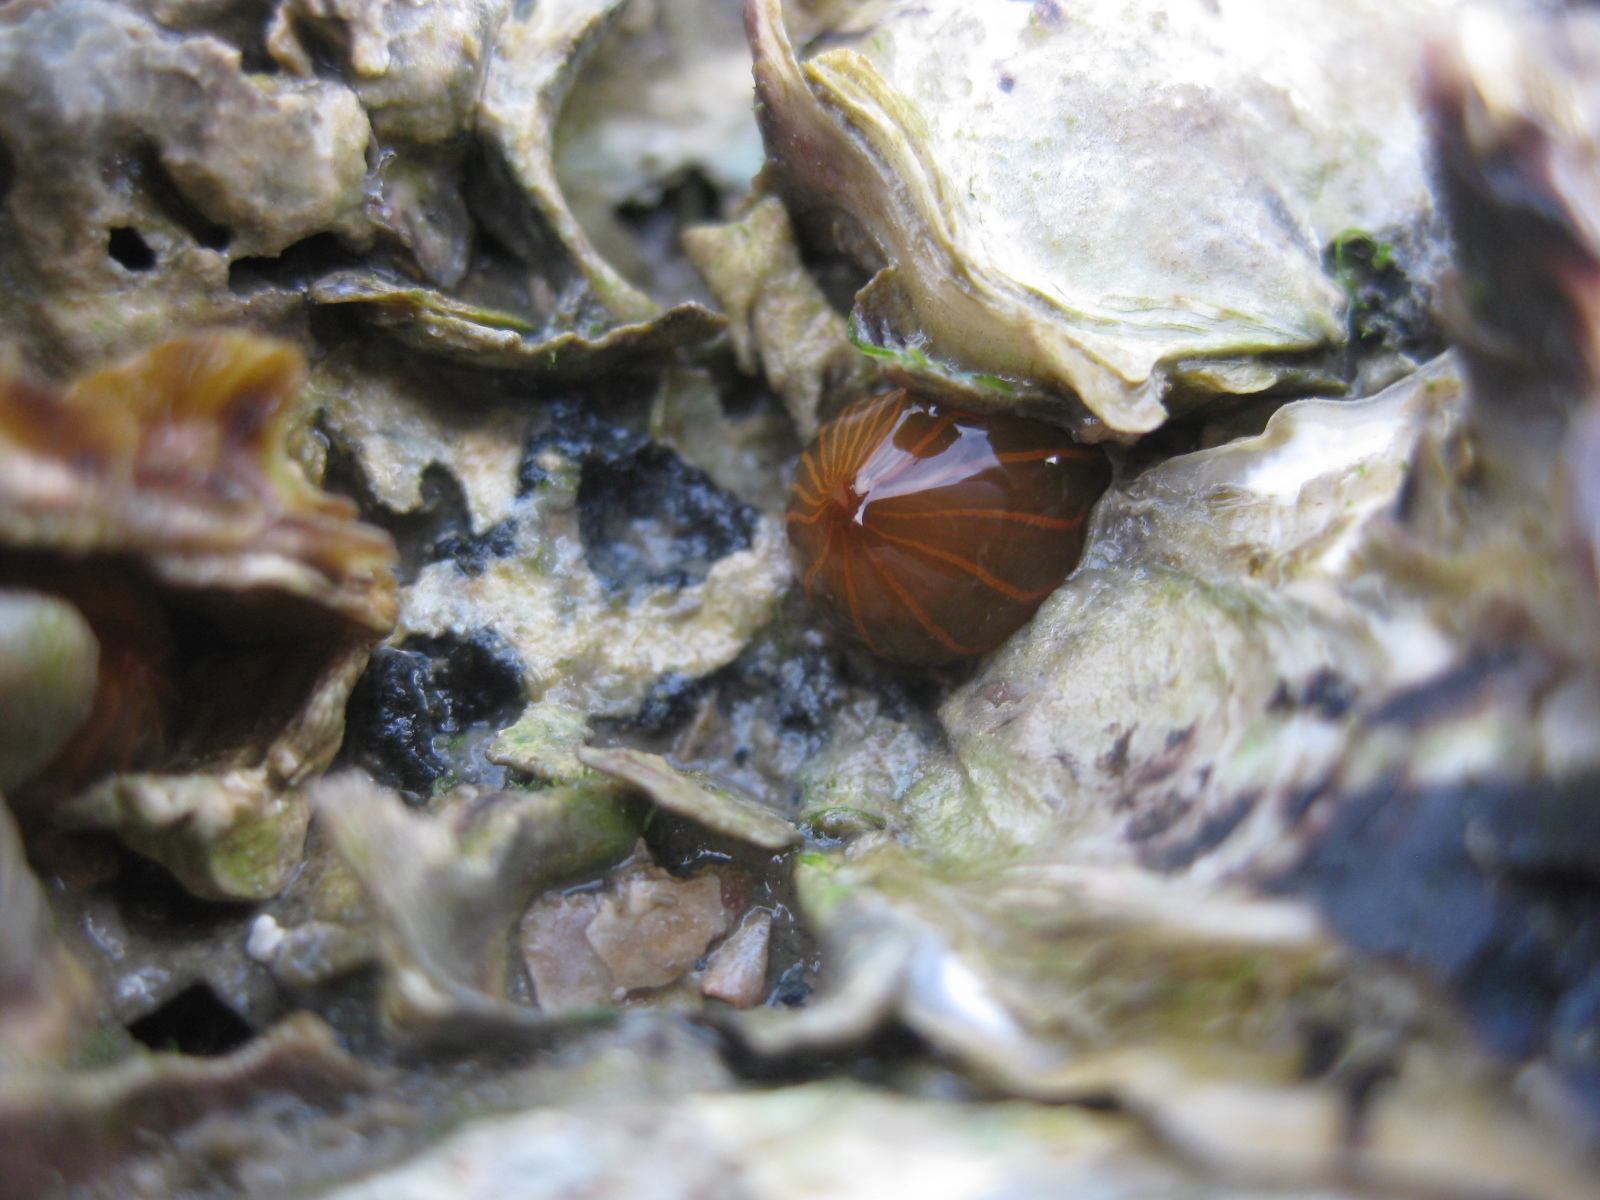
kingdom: Animalia
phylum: Cnidaria
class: Anthozoa
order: Actiniaria
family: Diadumenidae
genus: Diadumene
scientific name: Diadumene lineata
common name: Orange-striped anemone
